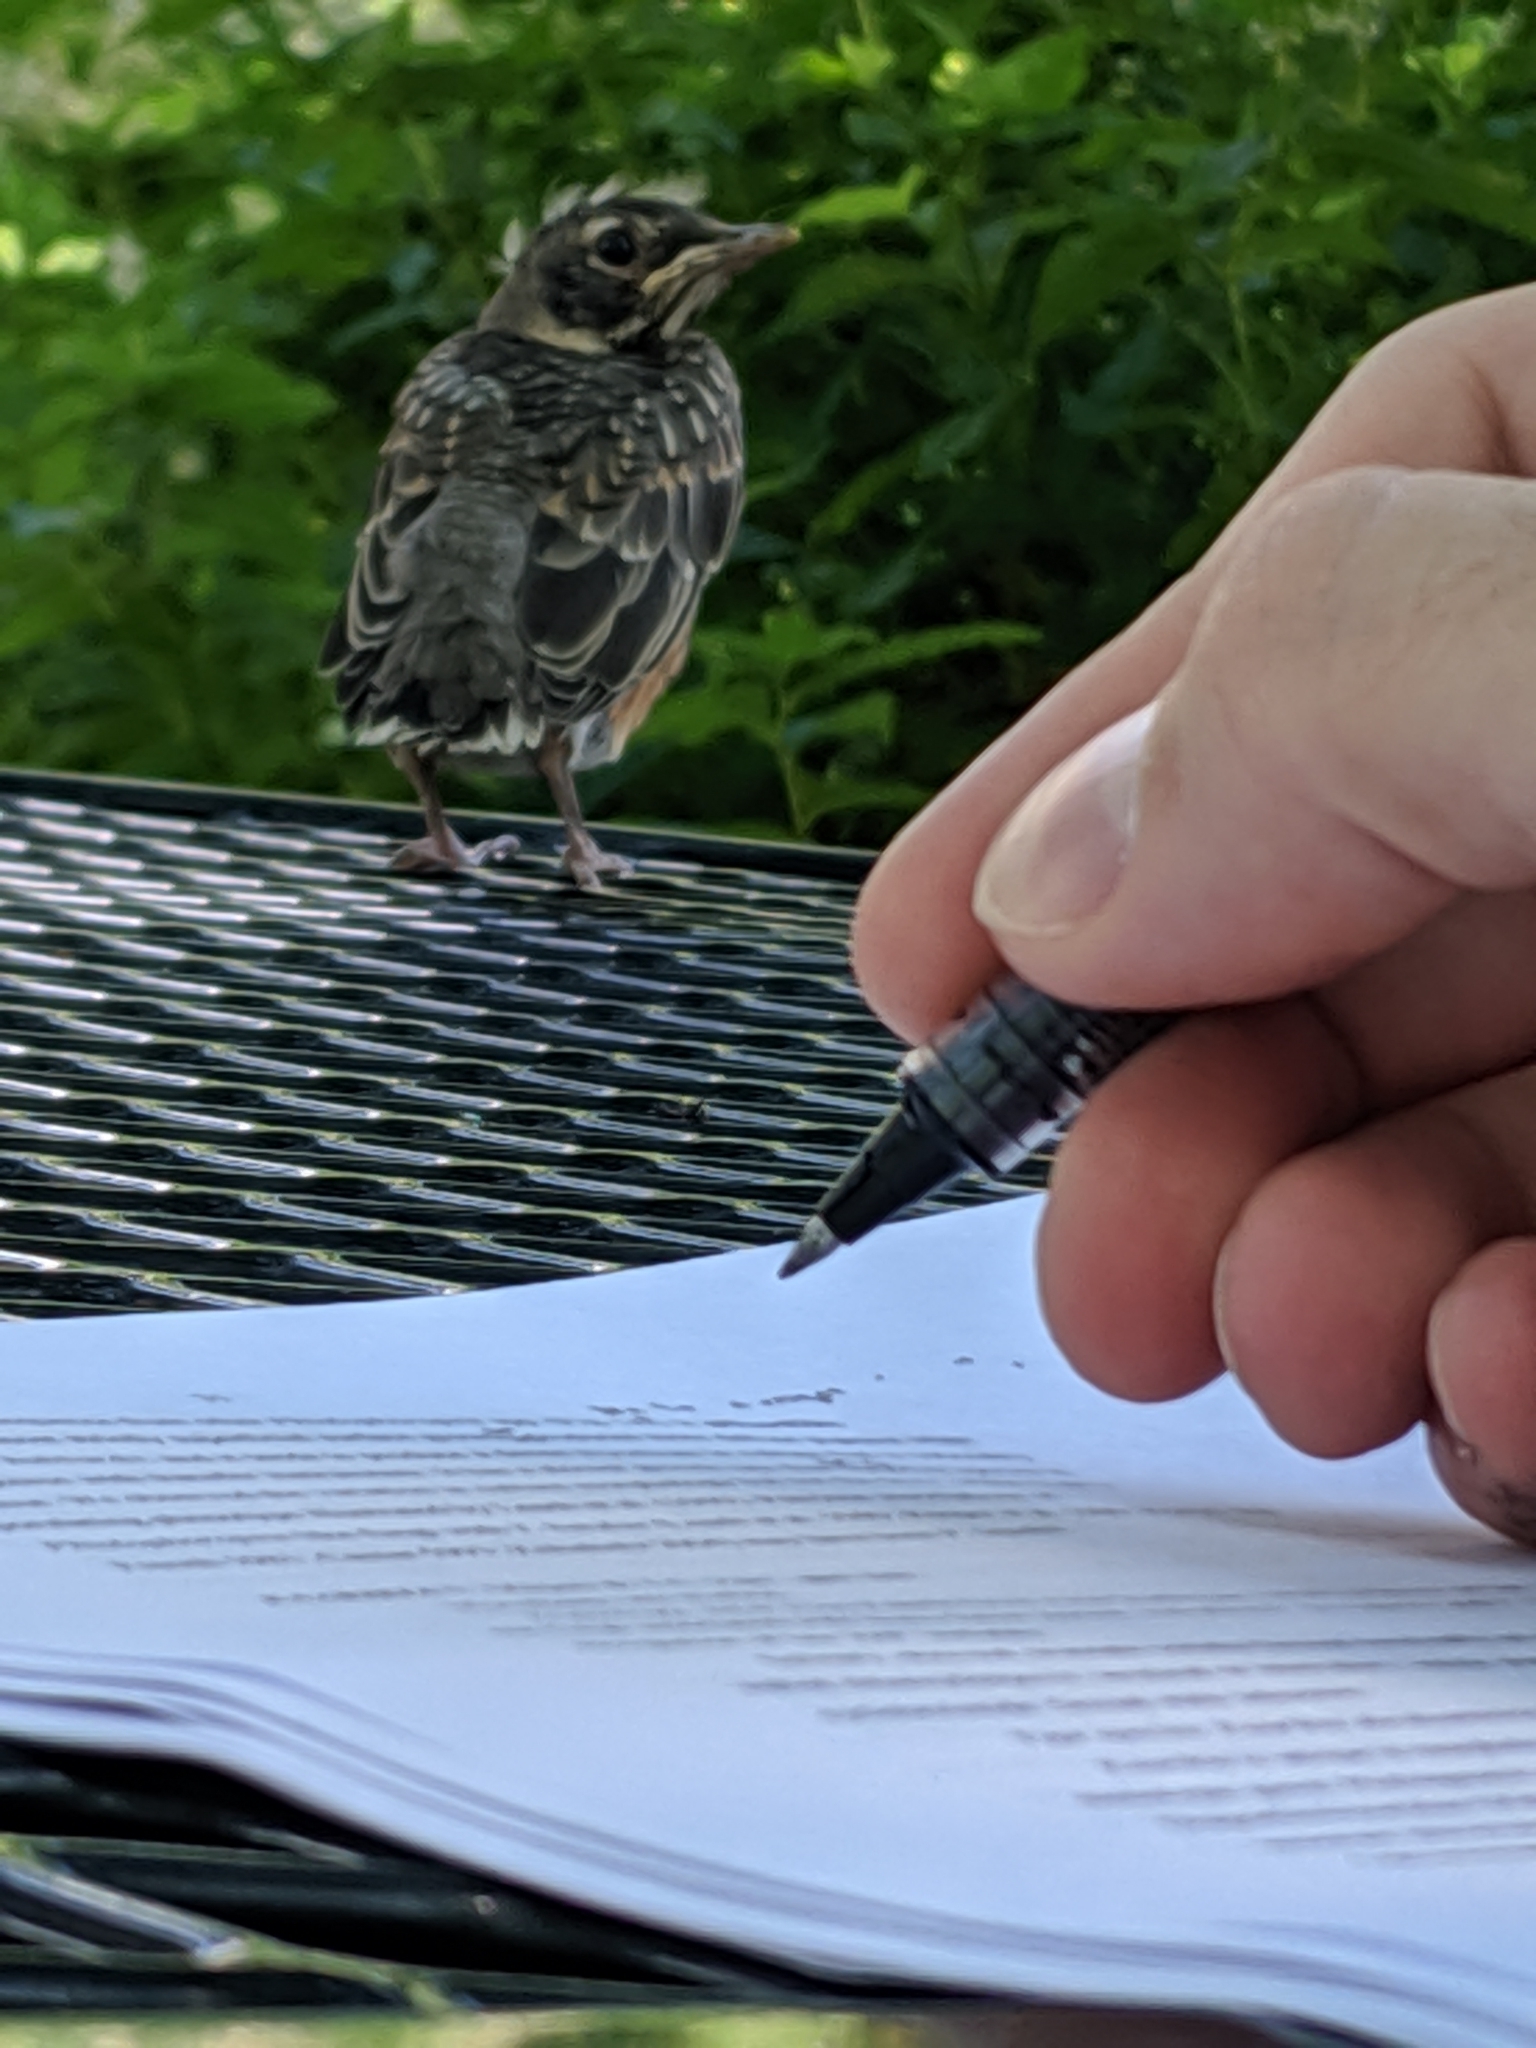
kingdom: Animalia
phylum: Chordata
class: Aves
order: Passeriformes
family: Turdidae
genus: Turdus
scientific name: Turdus migratorius
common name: American robin
